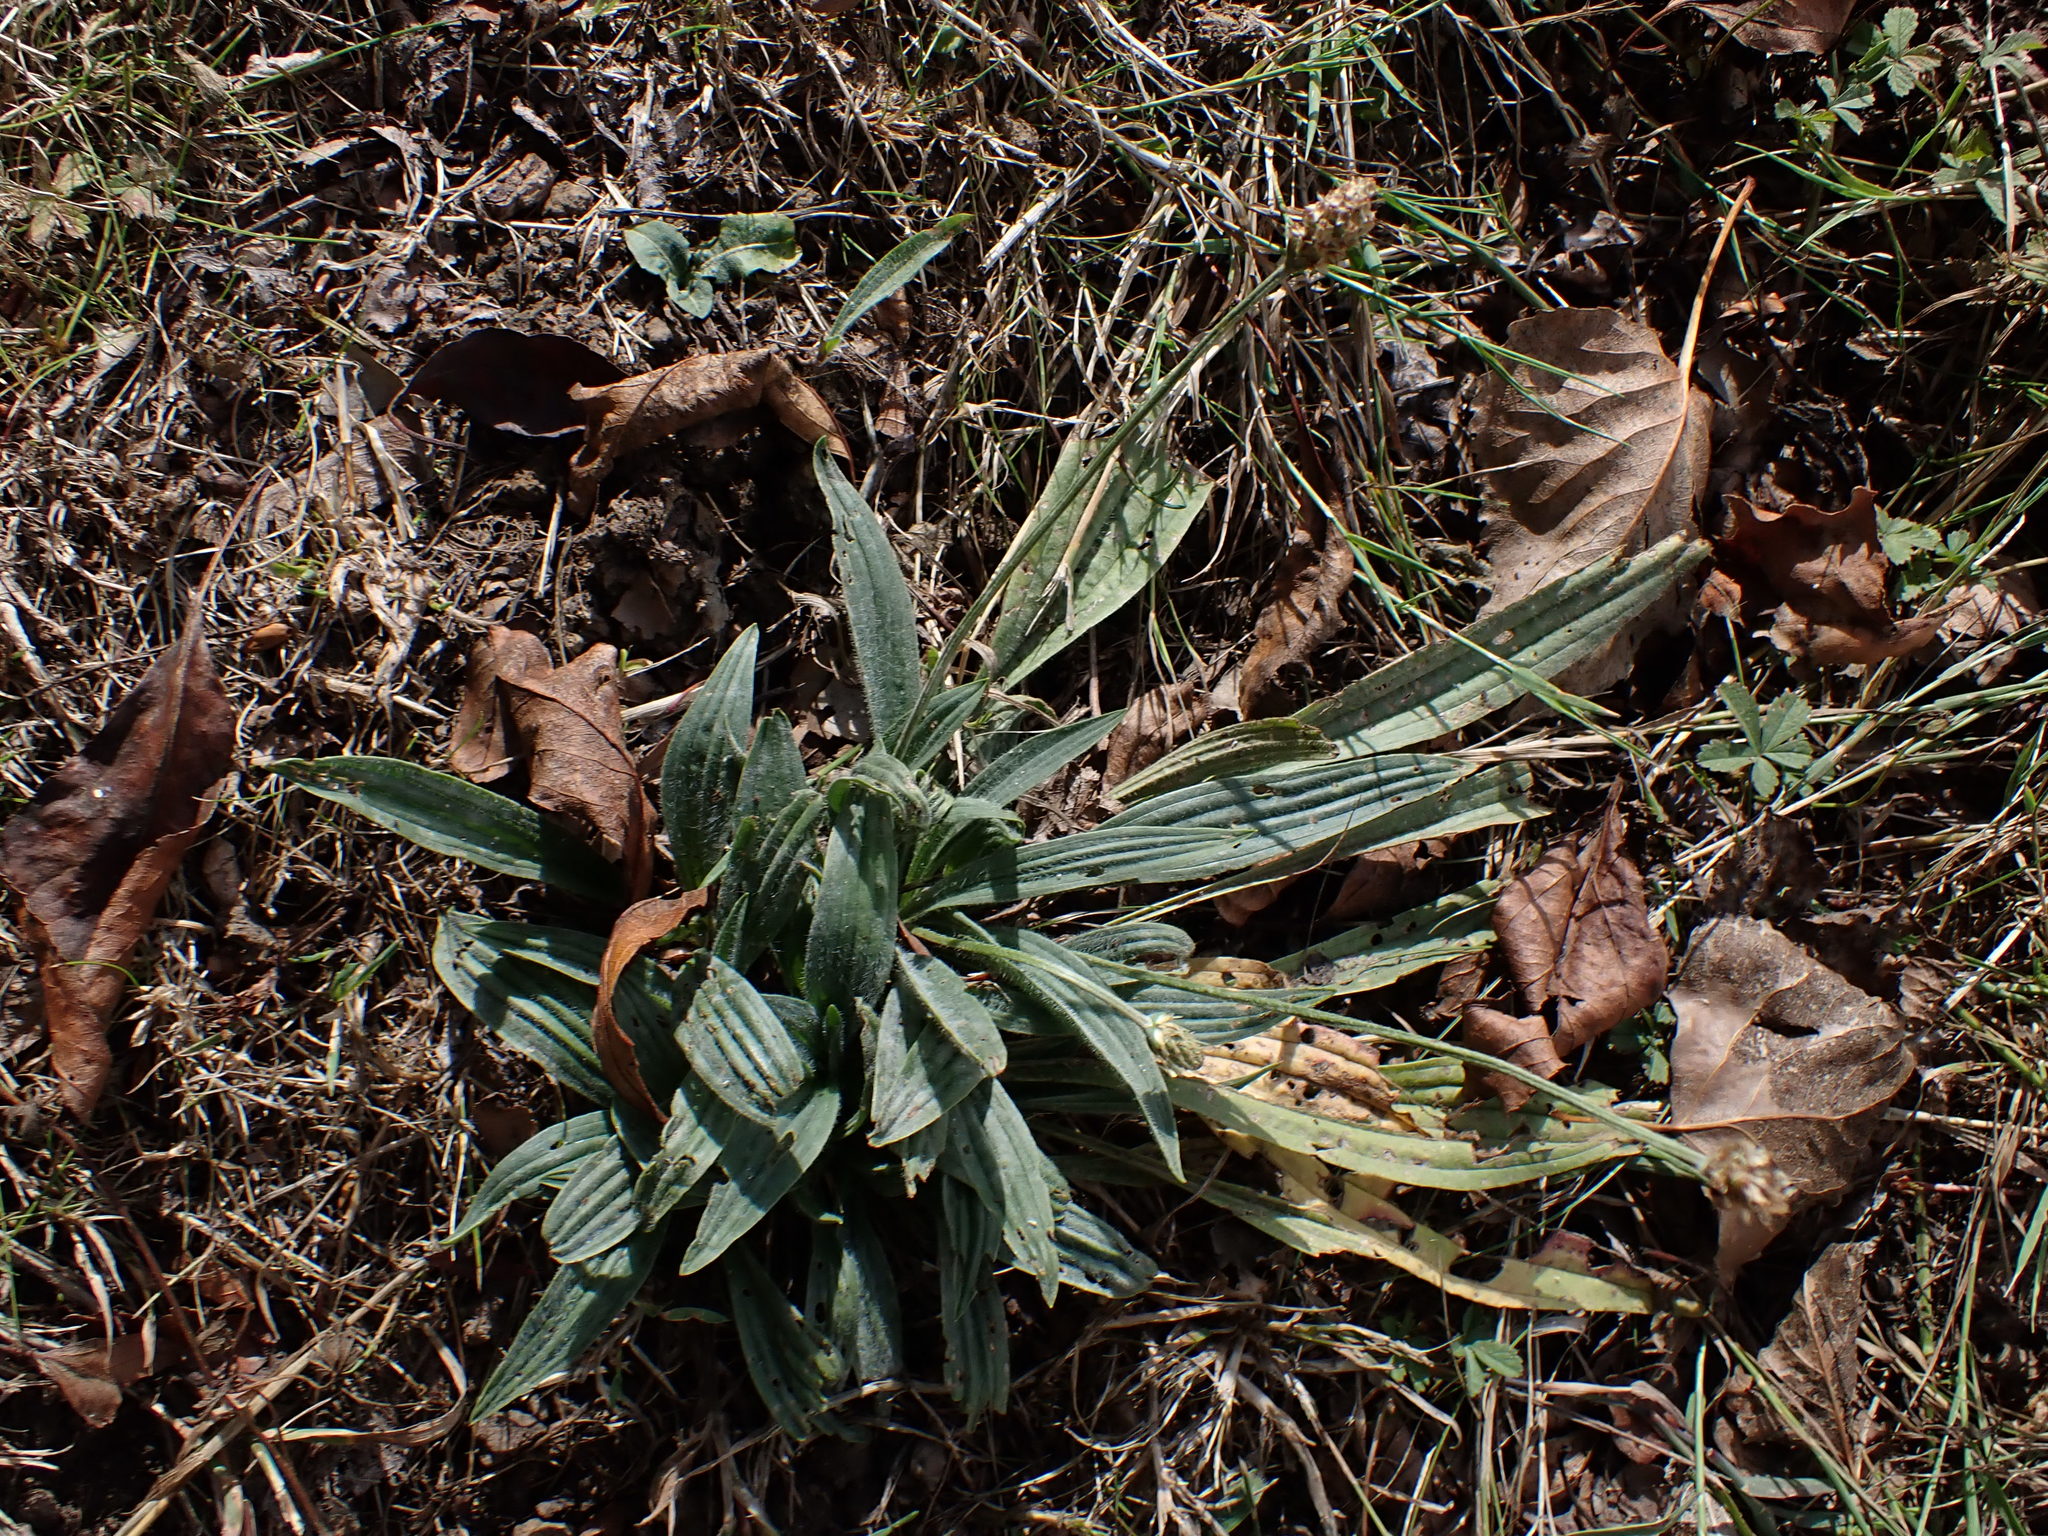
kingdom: Plantae
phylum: Tracheophyta
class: Magnoliopsida
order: Lamiales
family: Plantaginaceae
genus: Plantago
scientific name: Plantago lanceolata
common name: Ribwort plantain
